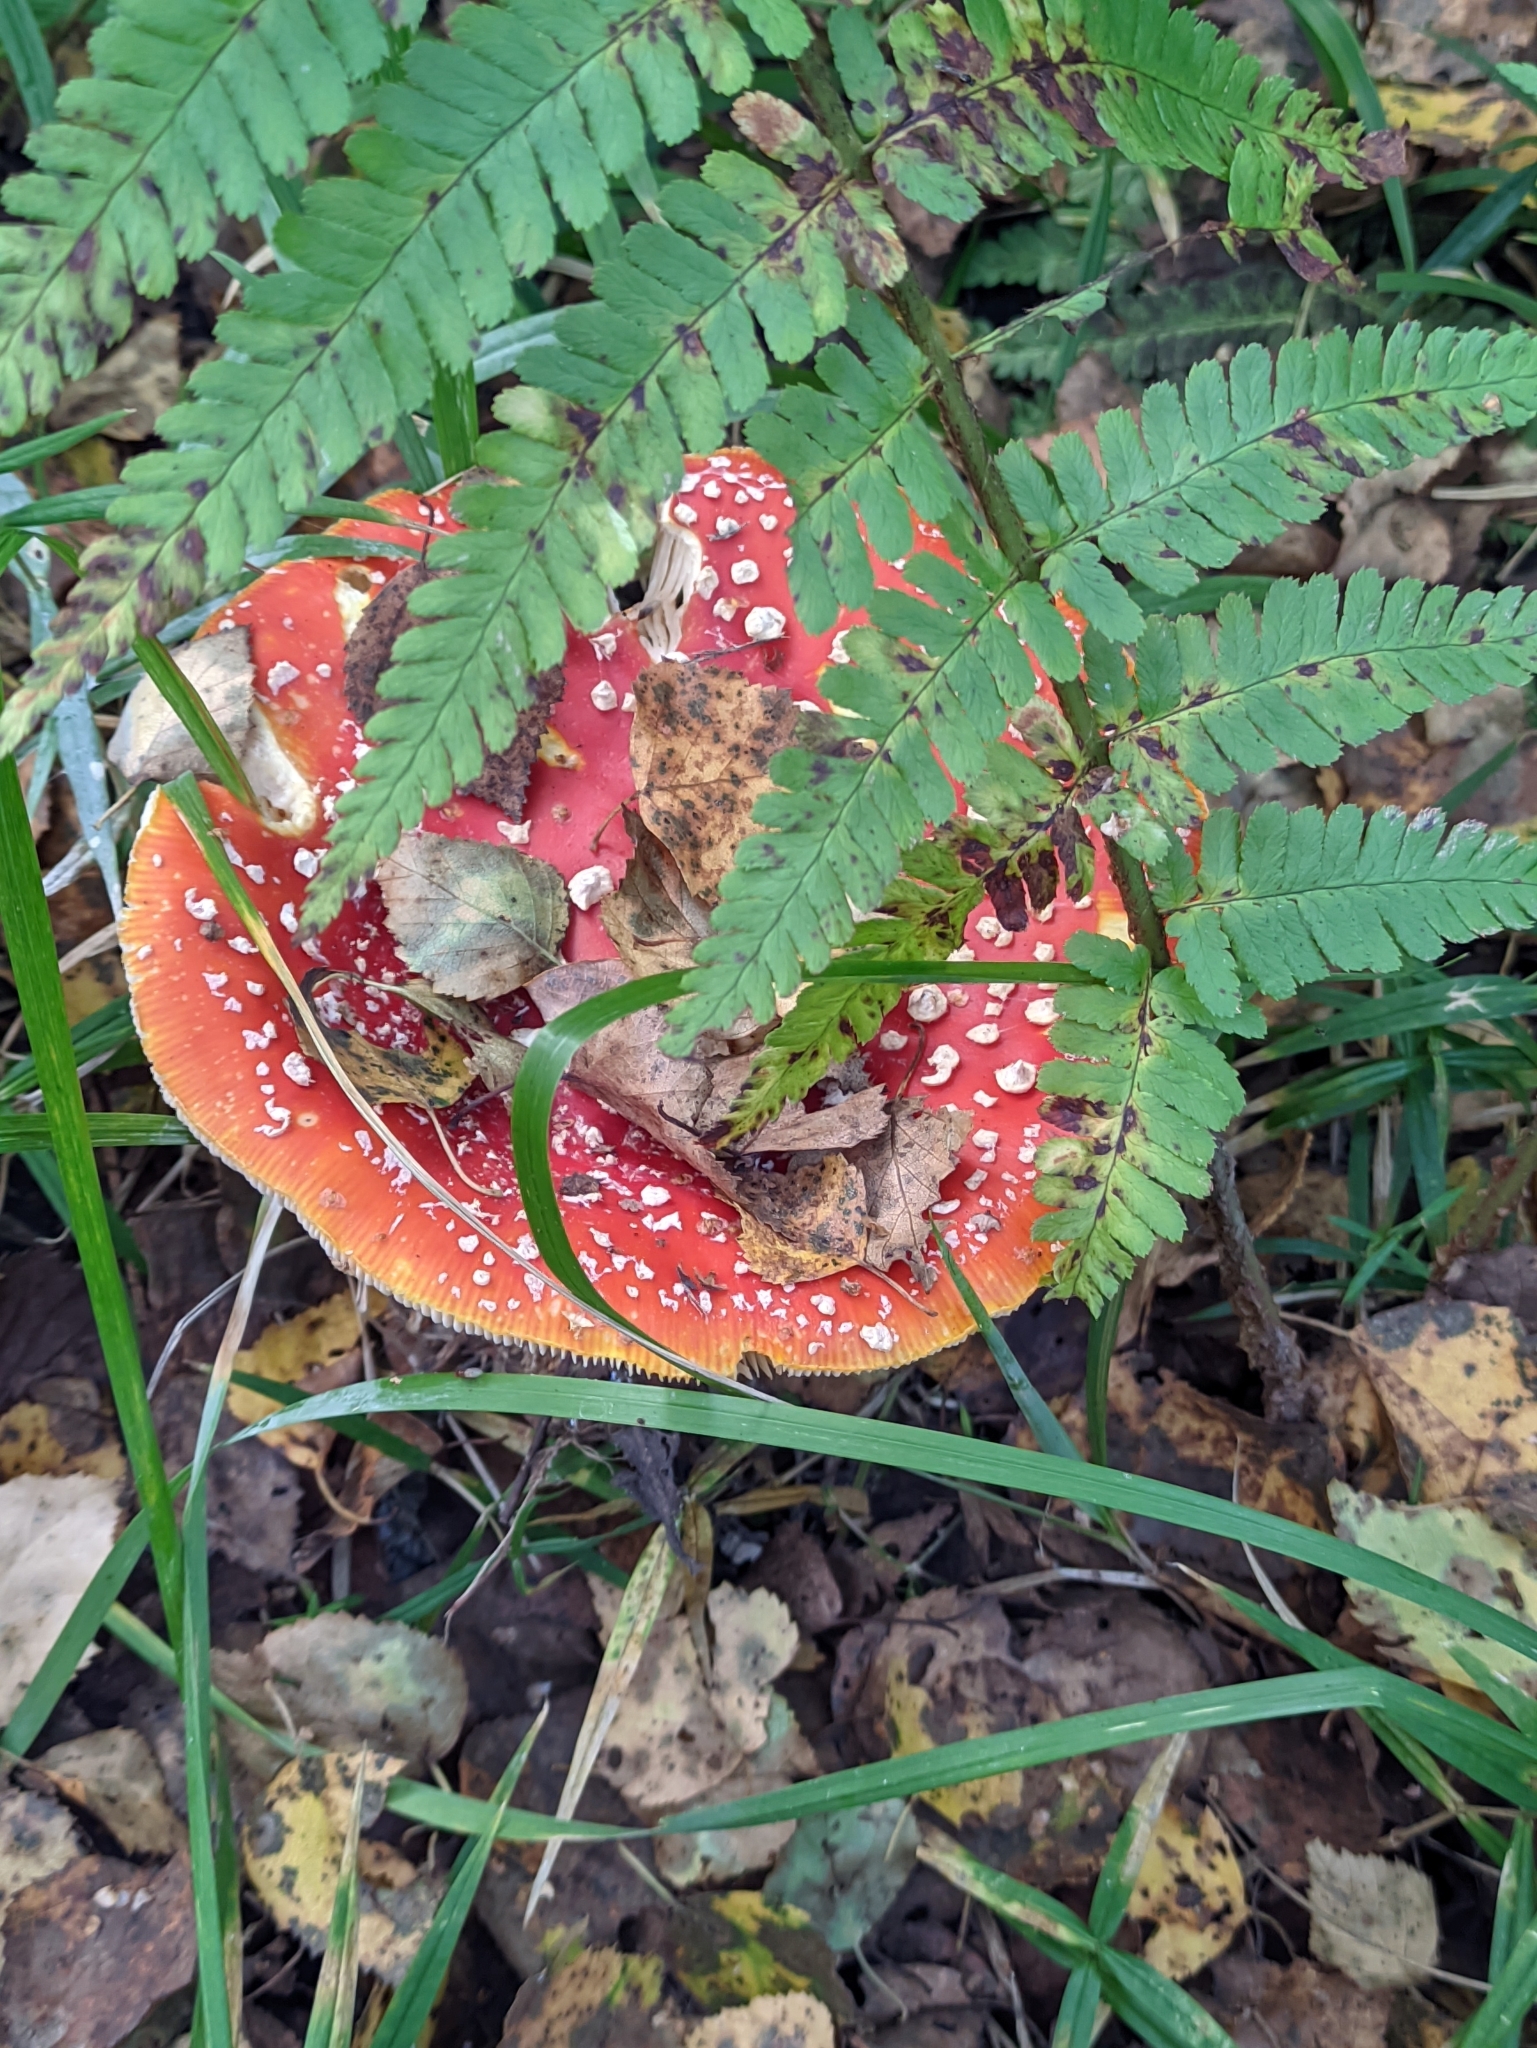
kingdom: Fungi
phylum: Basidiomycota
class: Agaricomycetes
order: Agaricales
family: Amanitaceae
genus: Amanita
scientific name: Amanita muscaria
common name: Fly agaric
